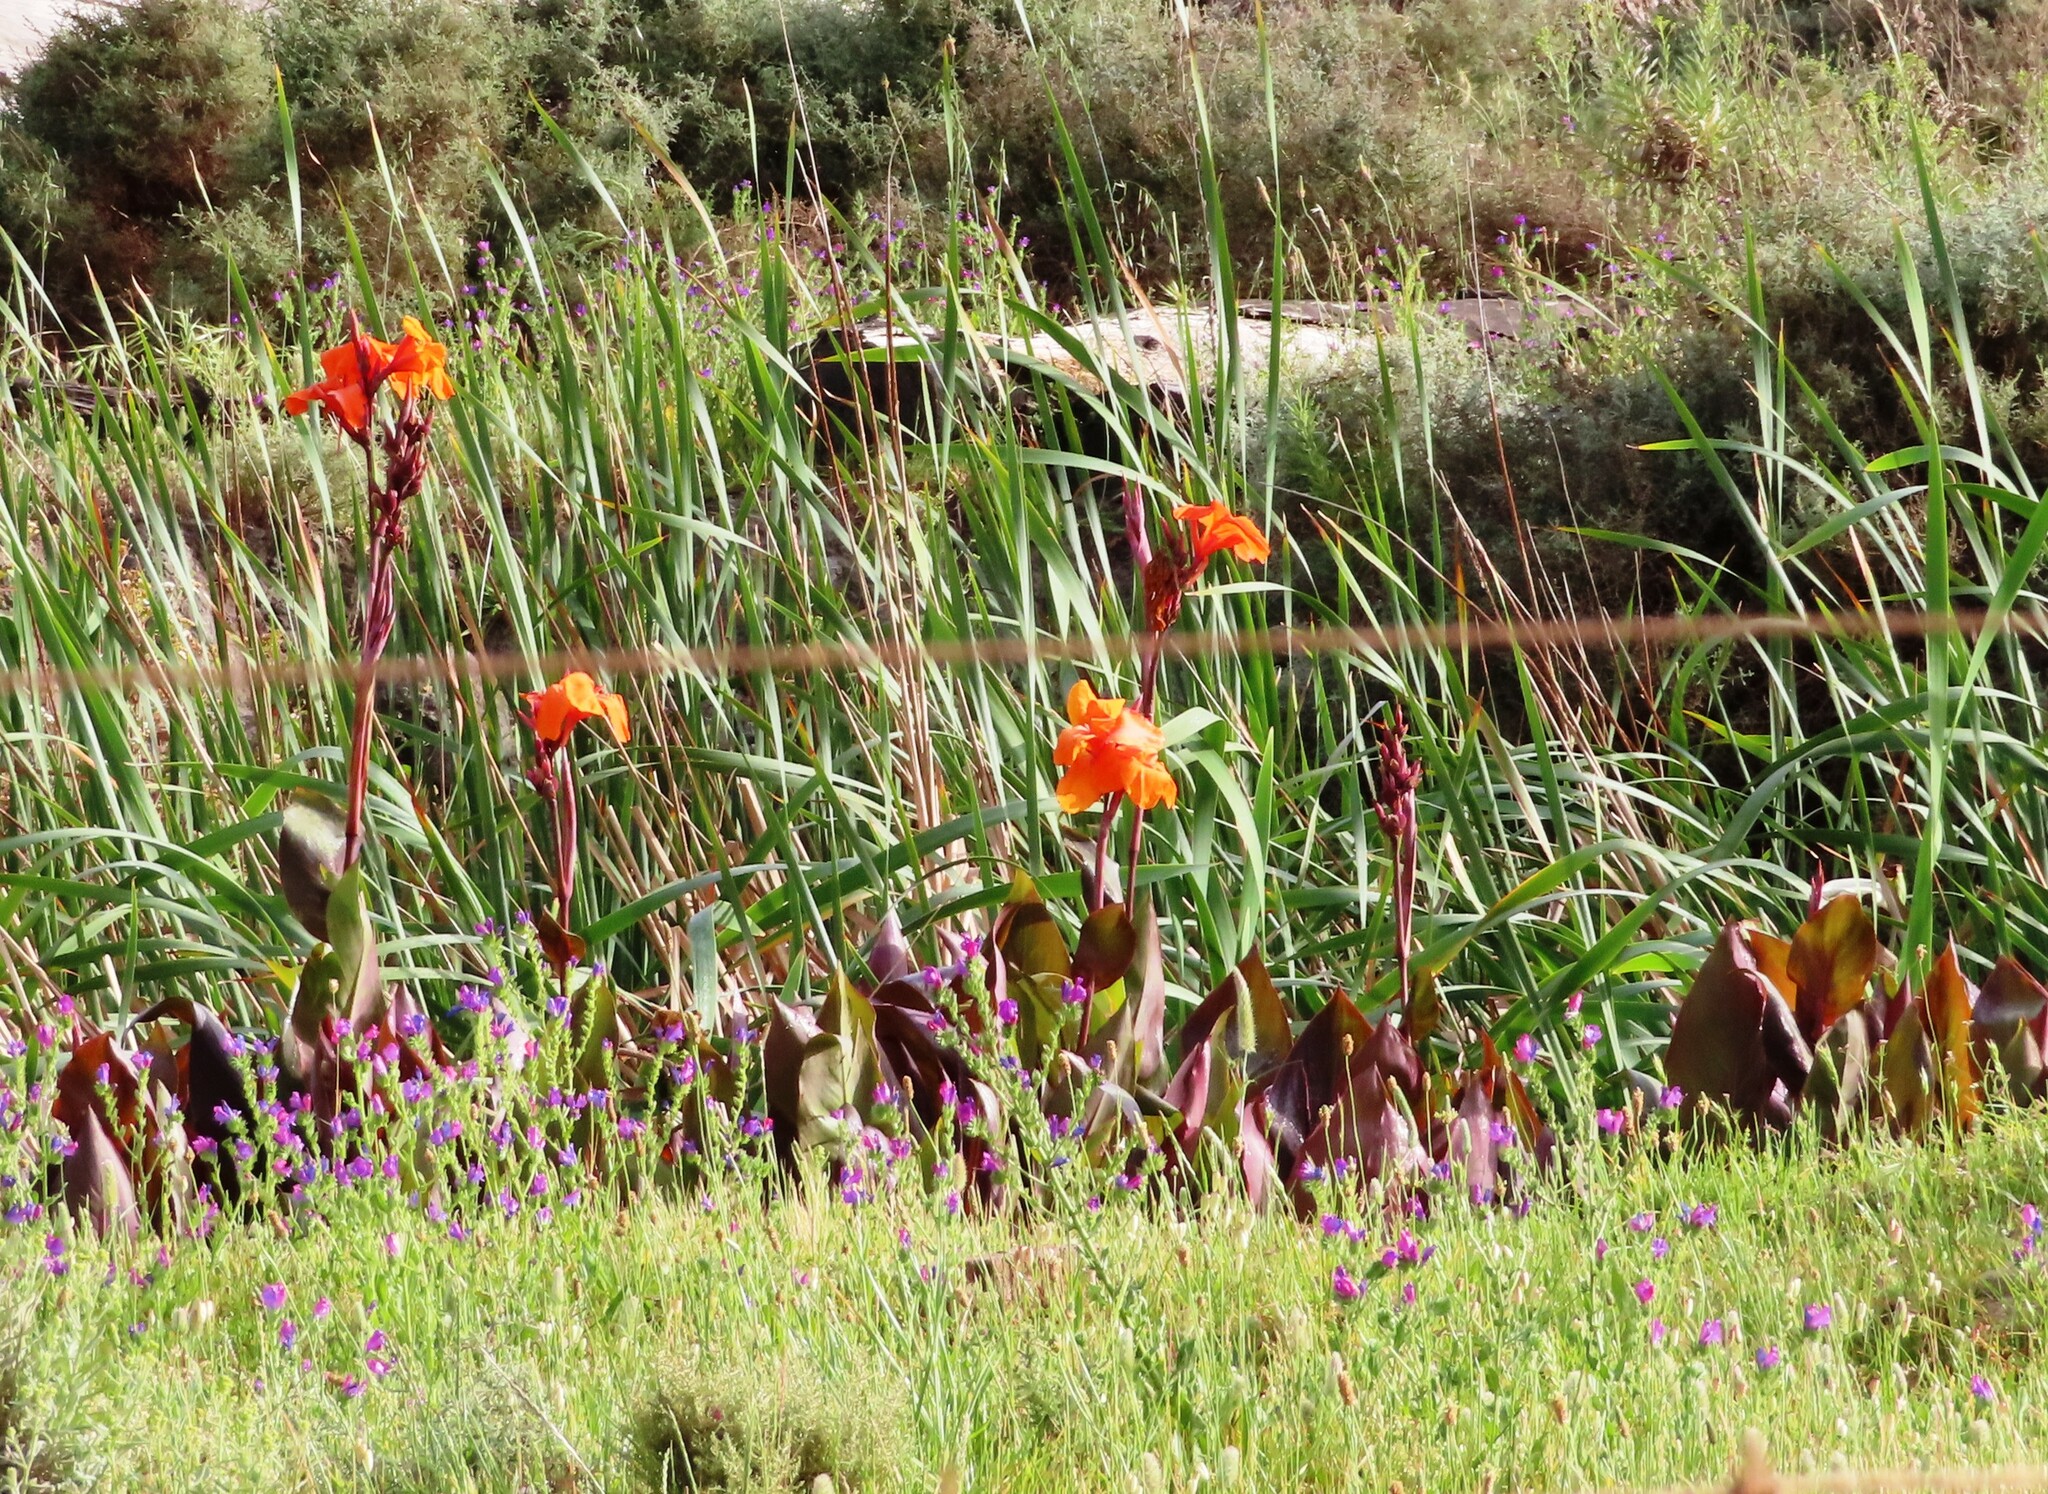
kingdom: Plantae
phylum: Tracheophyta
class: Liliopsida
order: Zingiberales
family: Cannaceae
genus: Canna
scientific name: Canna hybrida
